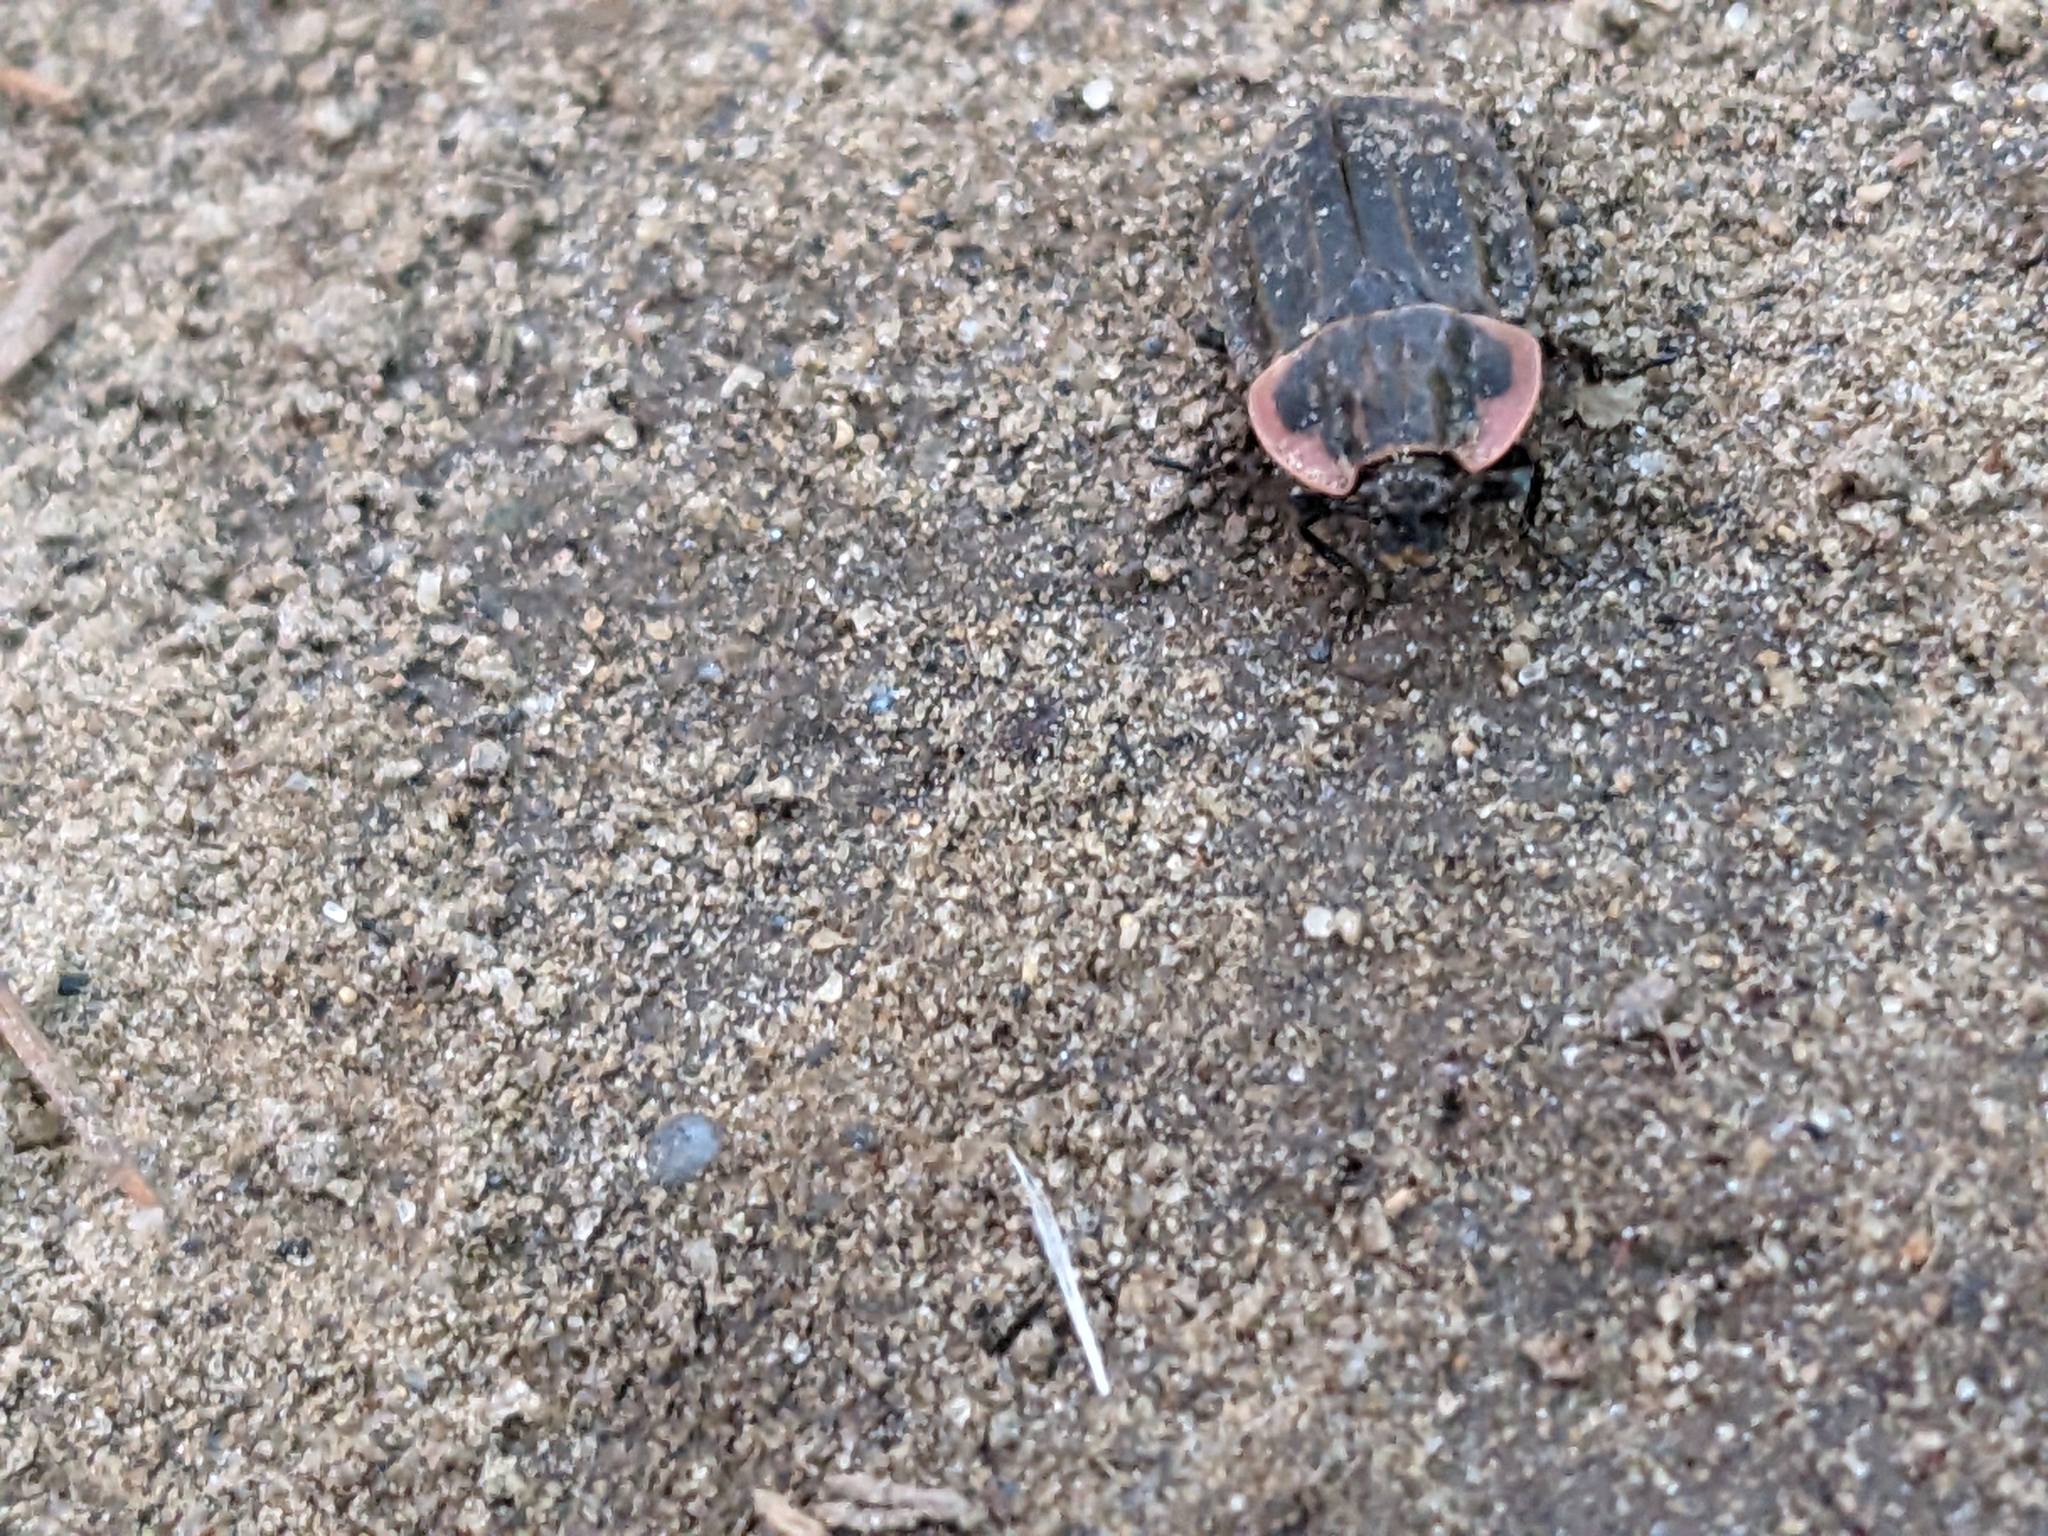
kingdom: Animalia
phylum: Arthropoda
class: Insecta
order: Coleoptera
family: Staphylinidae
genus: Oiceoptoma
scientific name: Oiceoptoma noveboracense
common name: Margined carrion beetle
